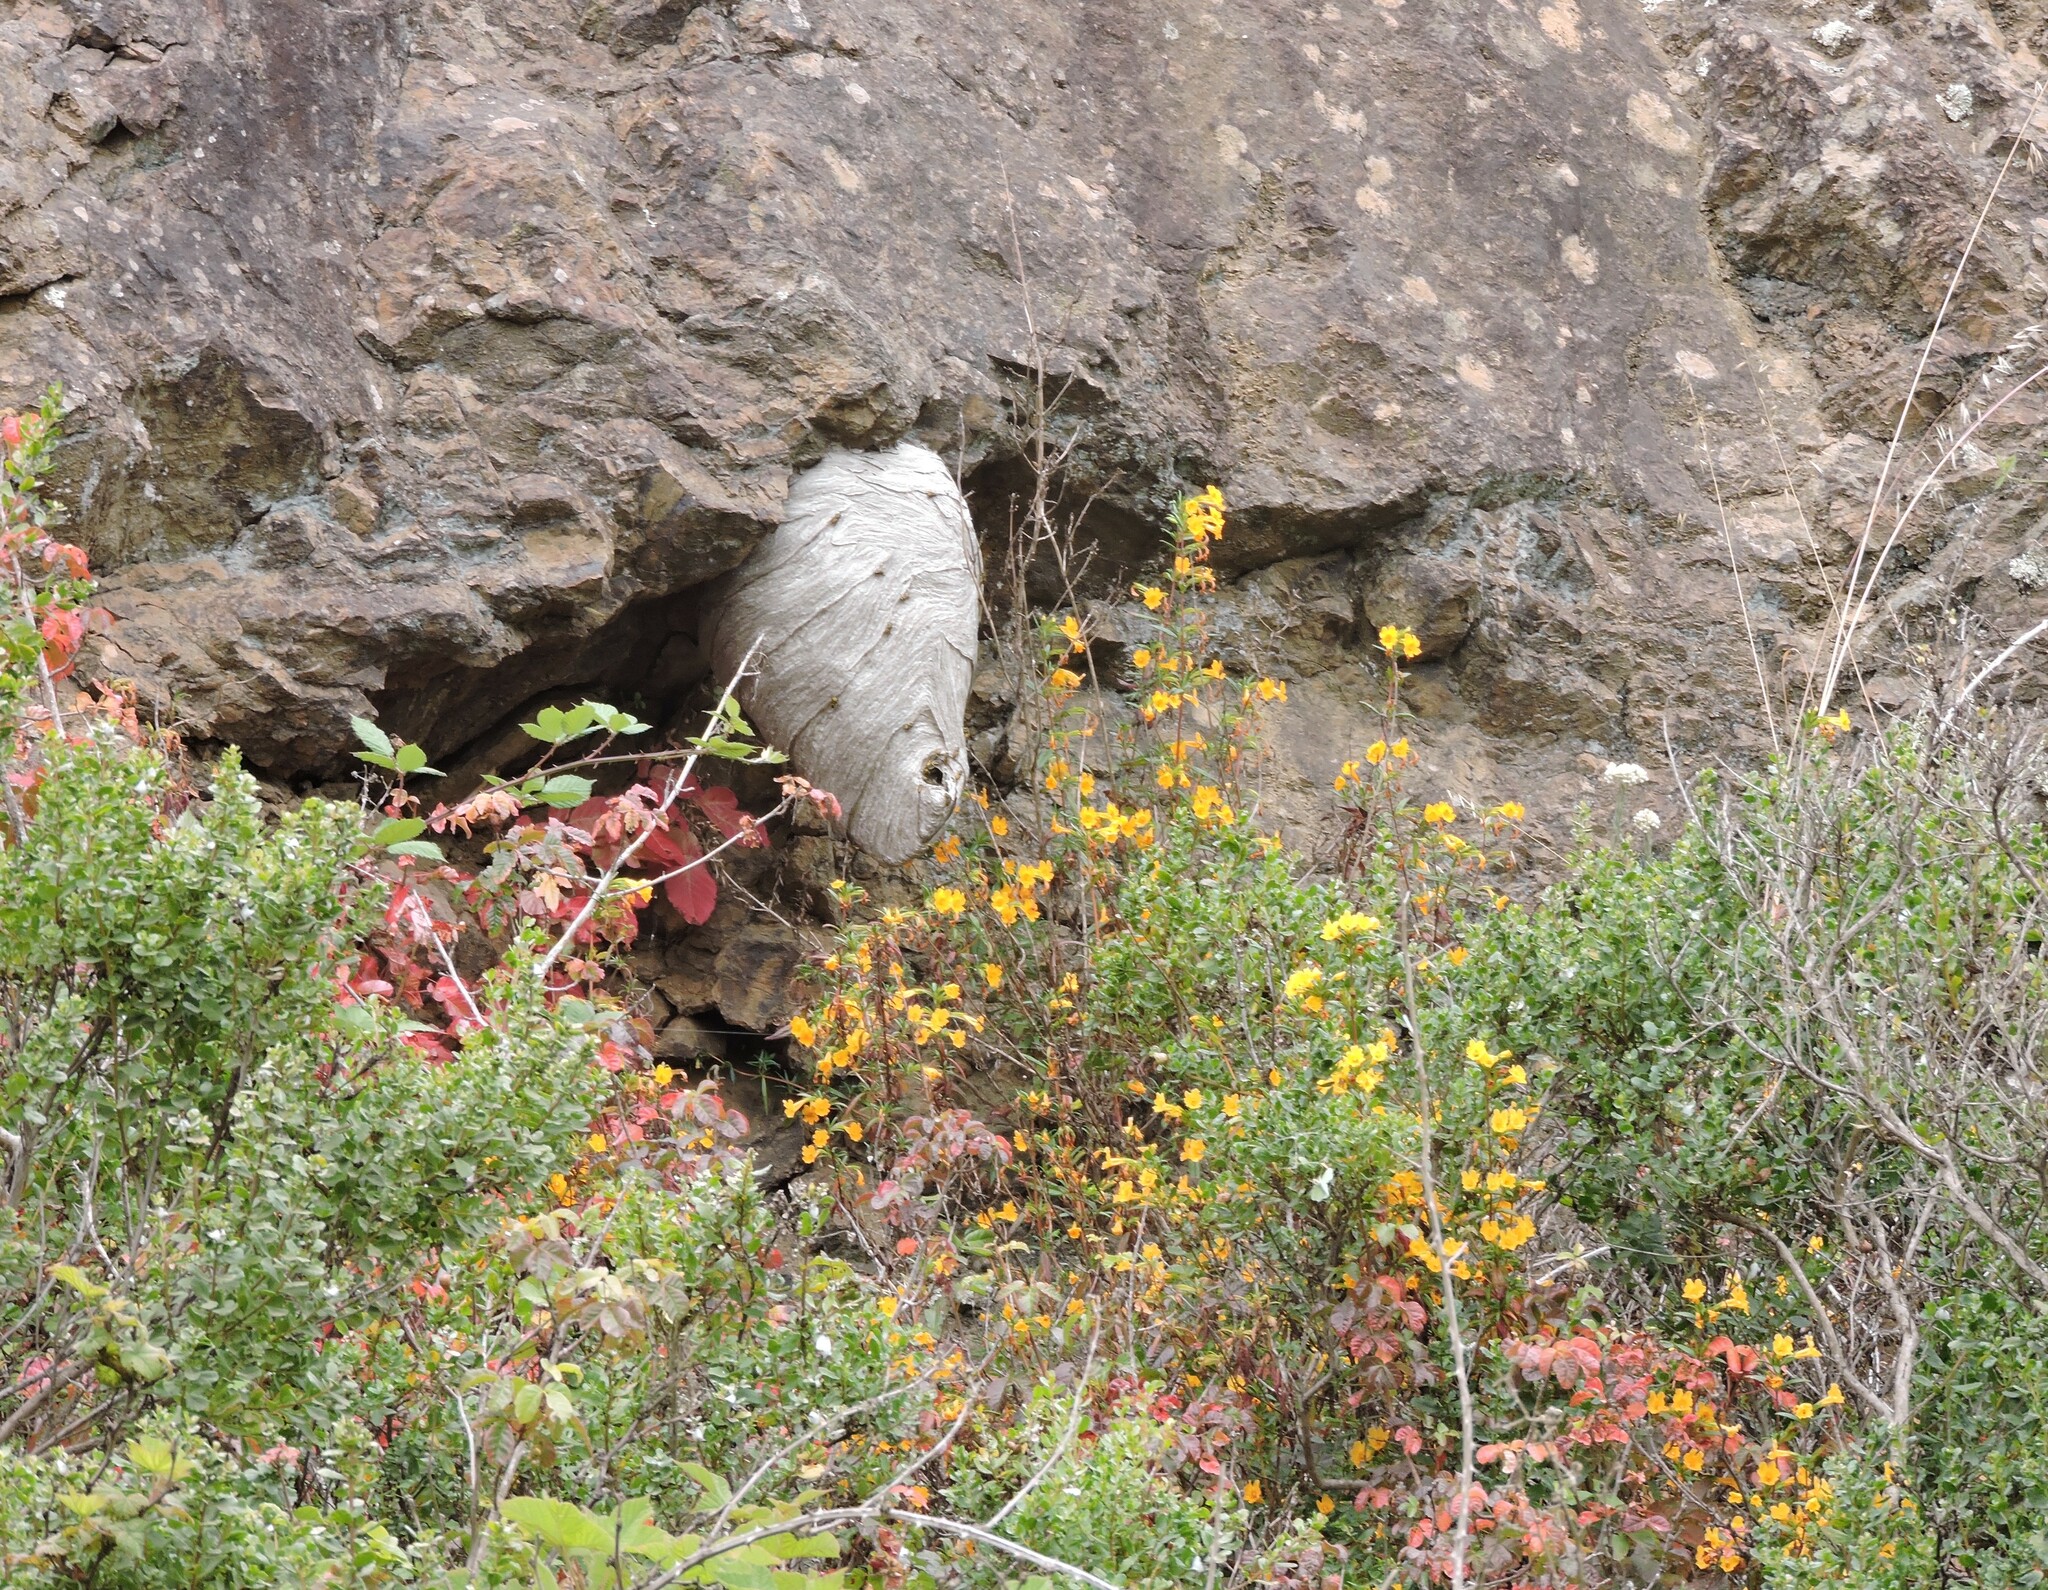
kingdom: Animalia
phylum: Arthropoda
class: Insecta
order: Hymenoptera
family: Vespidae
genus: Dolichovespula
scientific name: Dolichovespula arenaria
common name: Aerial yellowjacket
